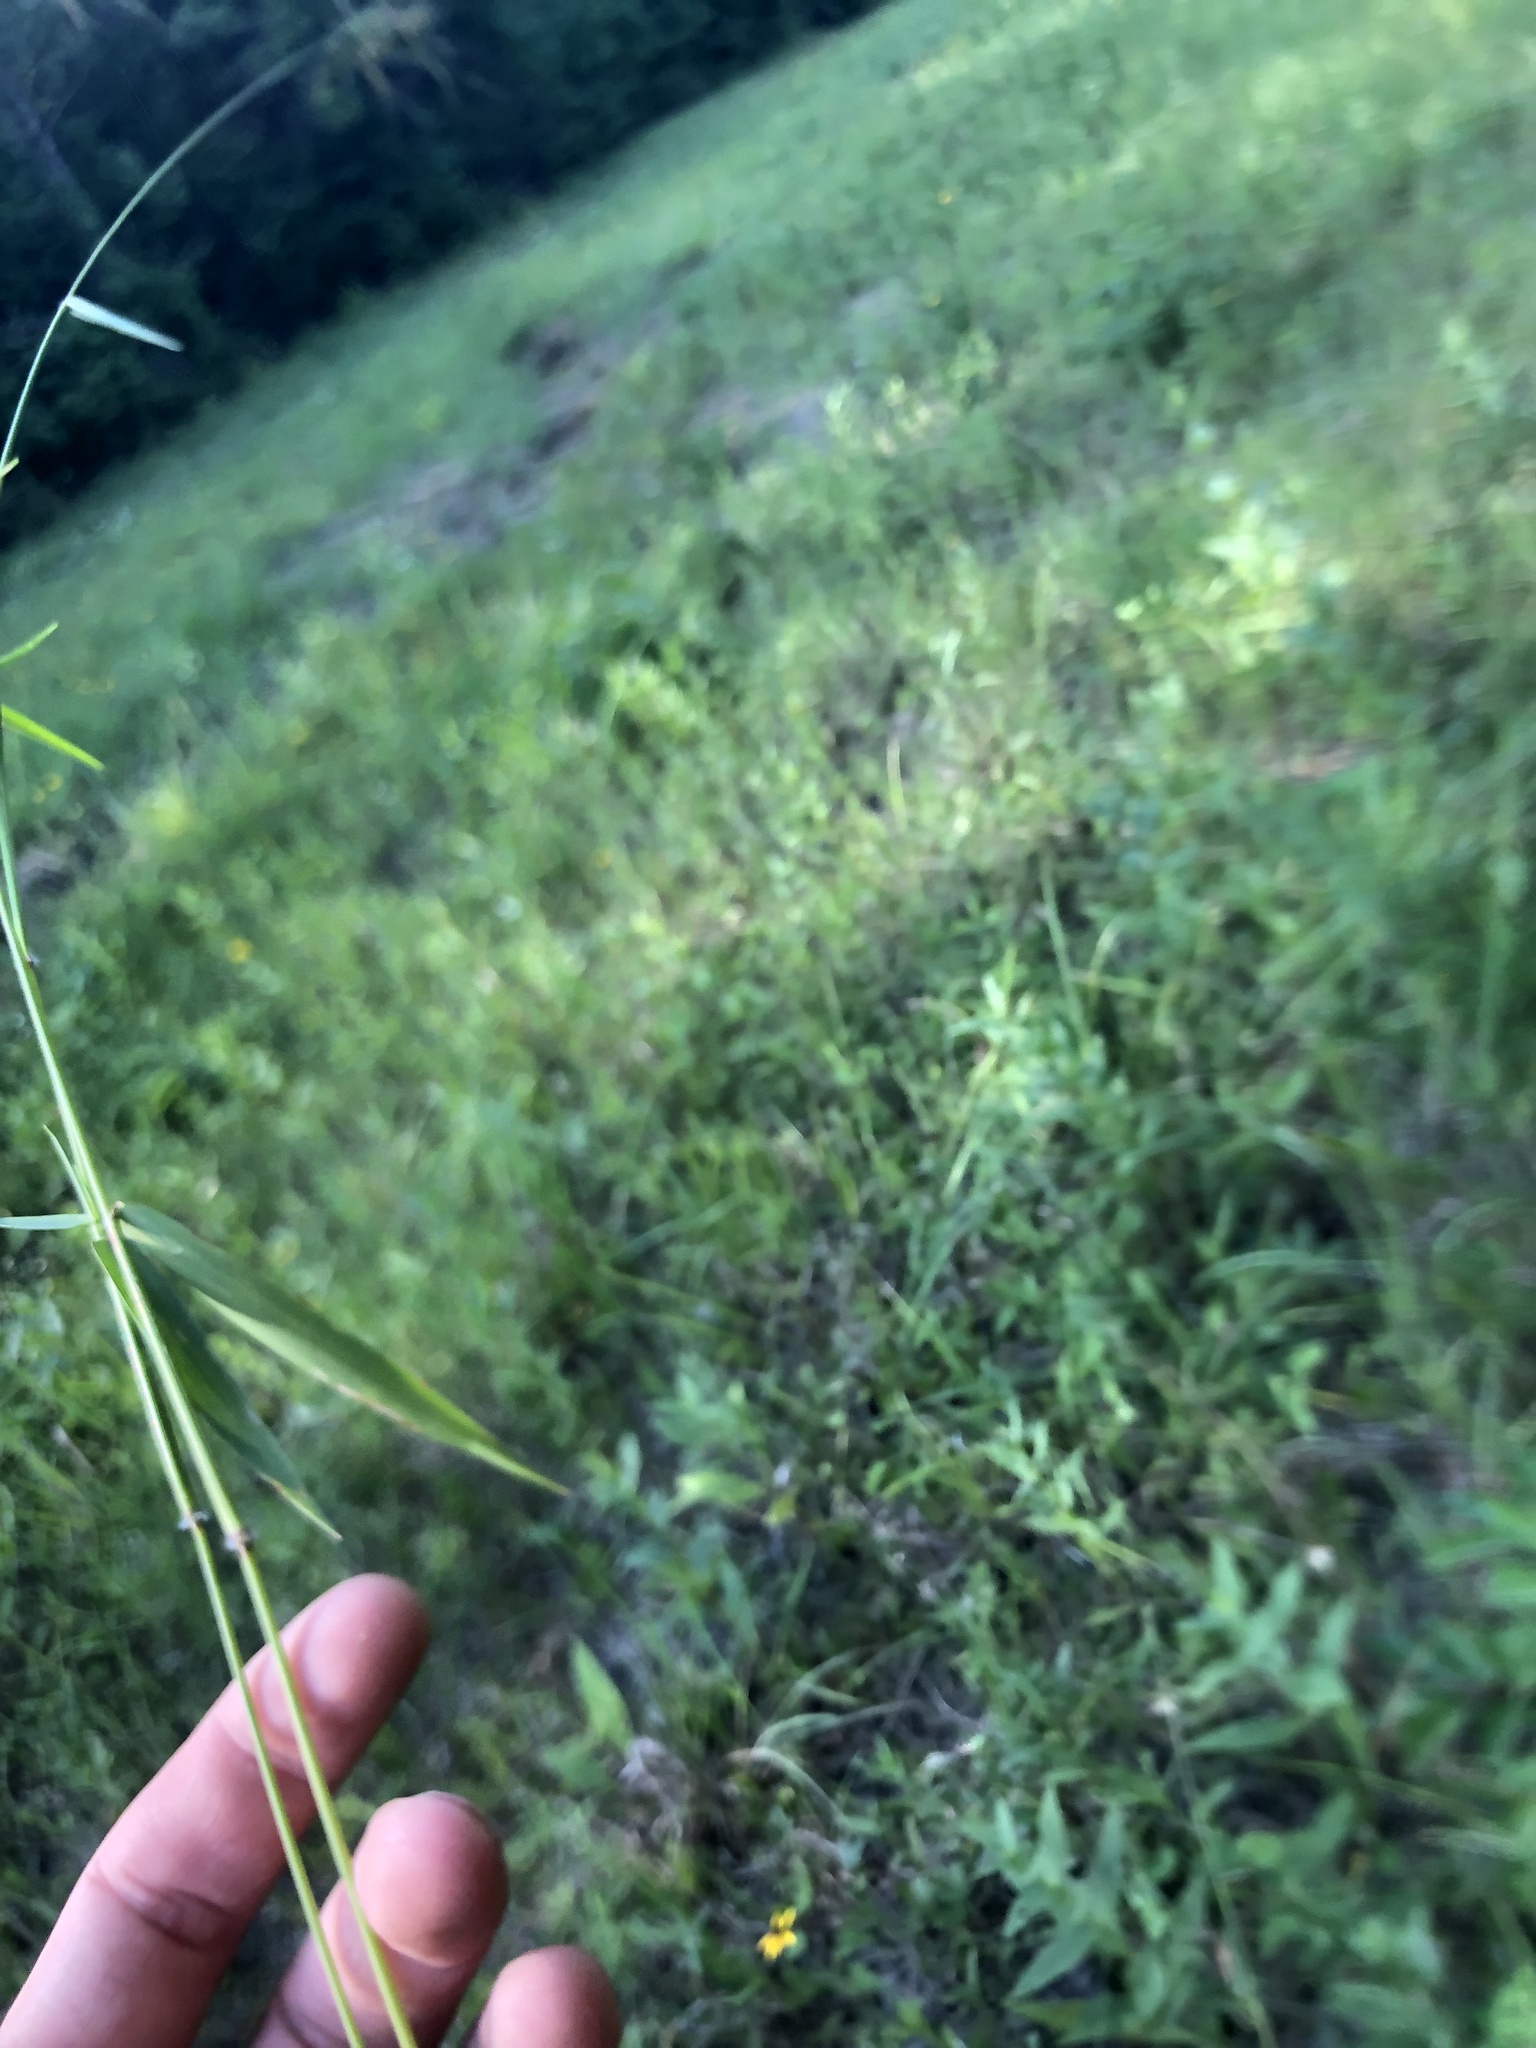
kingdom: Plantae
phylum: Tracheophyta
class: Liliopsida
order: Poales
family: Poaceae
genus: Dichanthelium
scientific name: Dichanthelium dichotomum
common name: Cypress panicgrass
